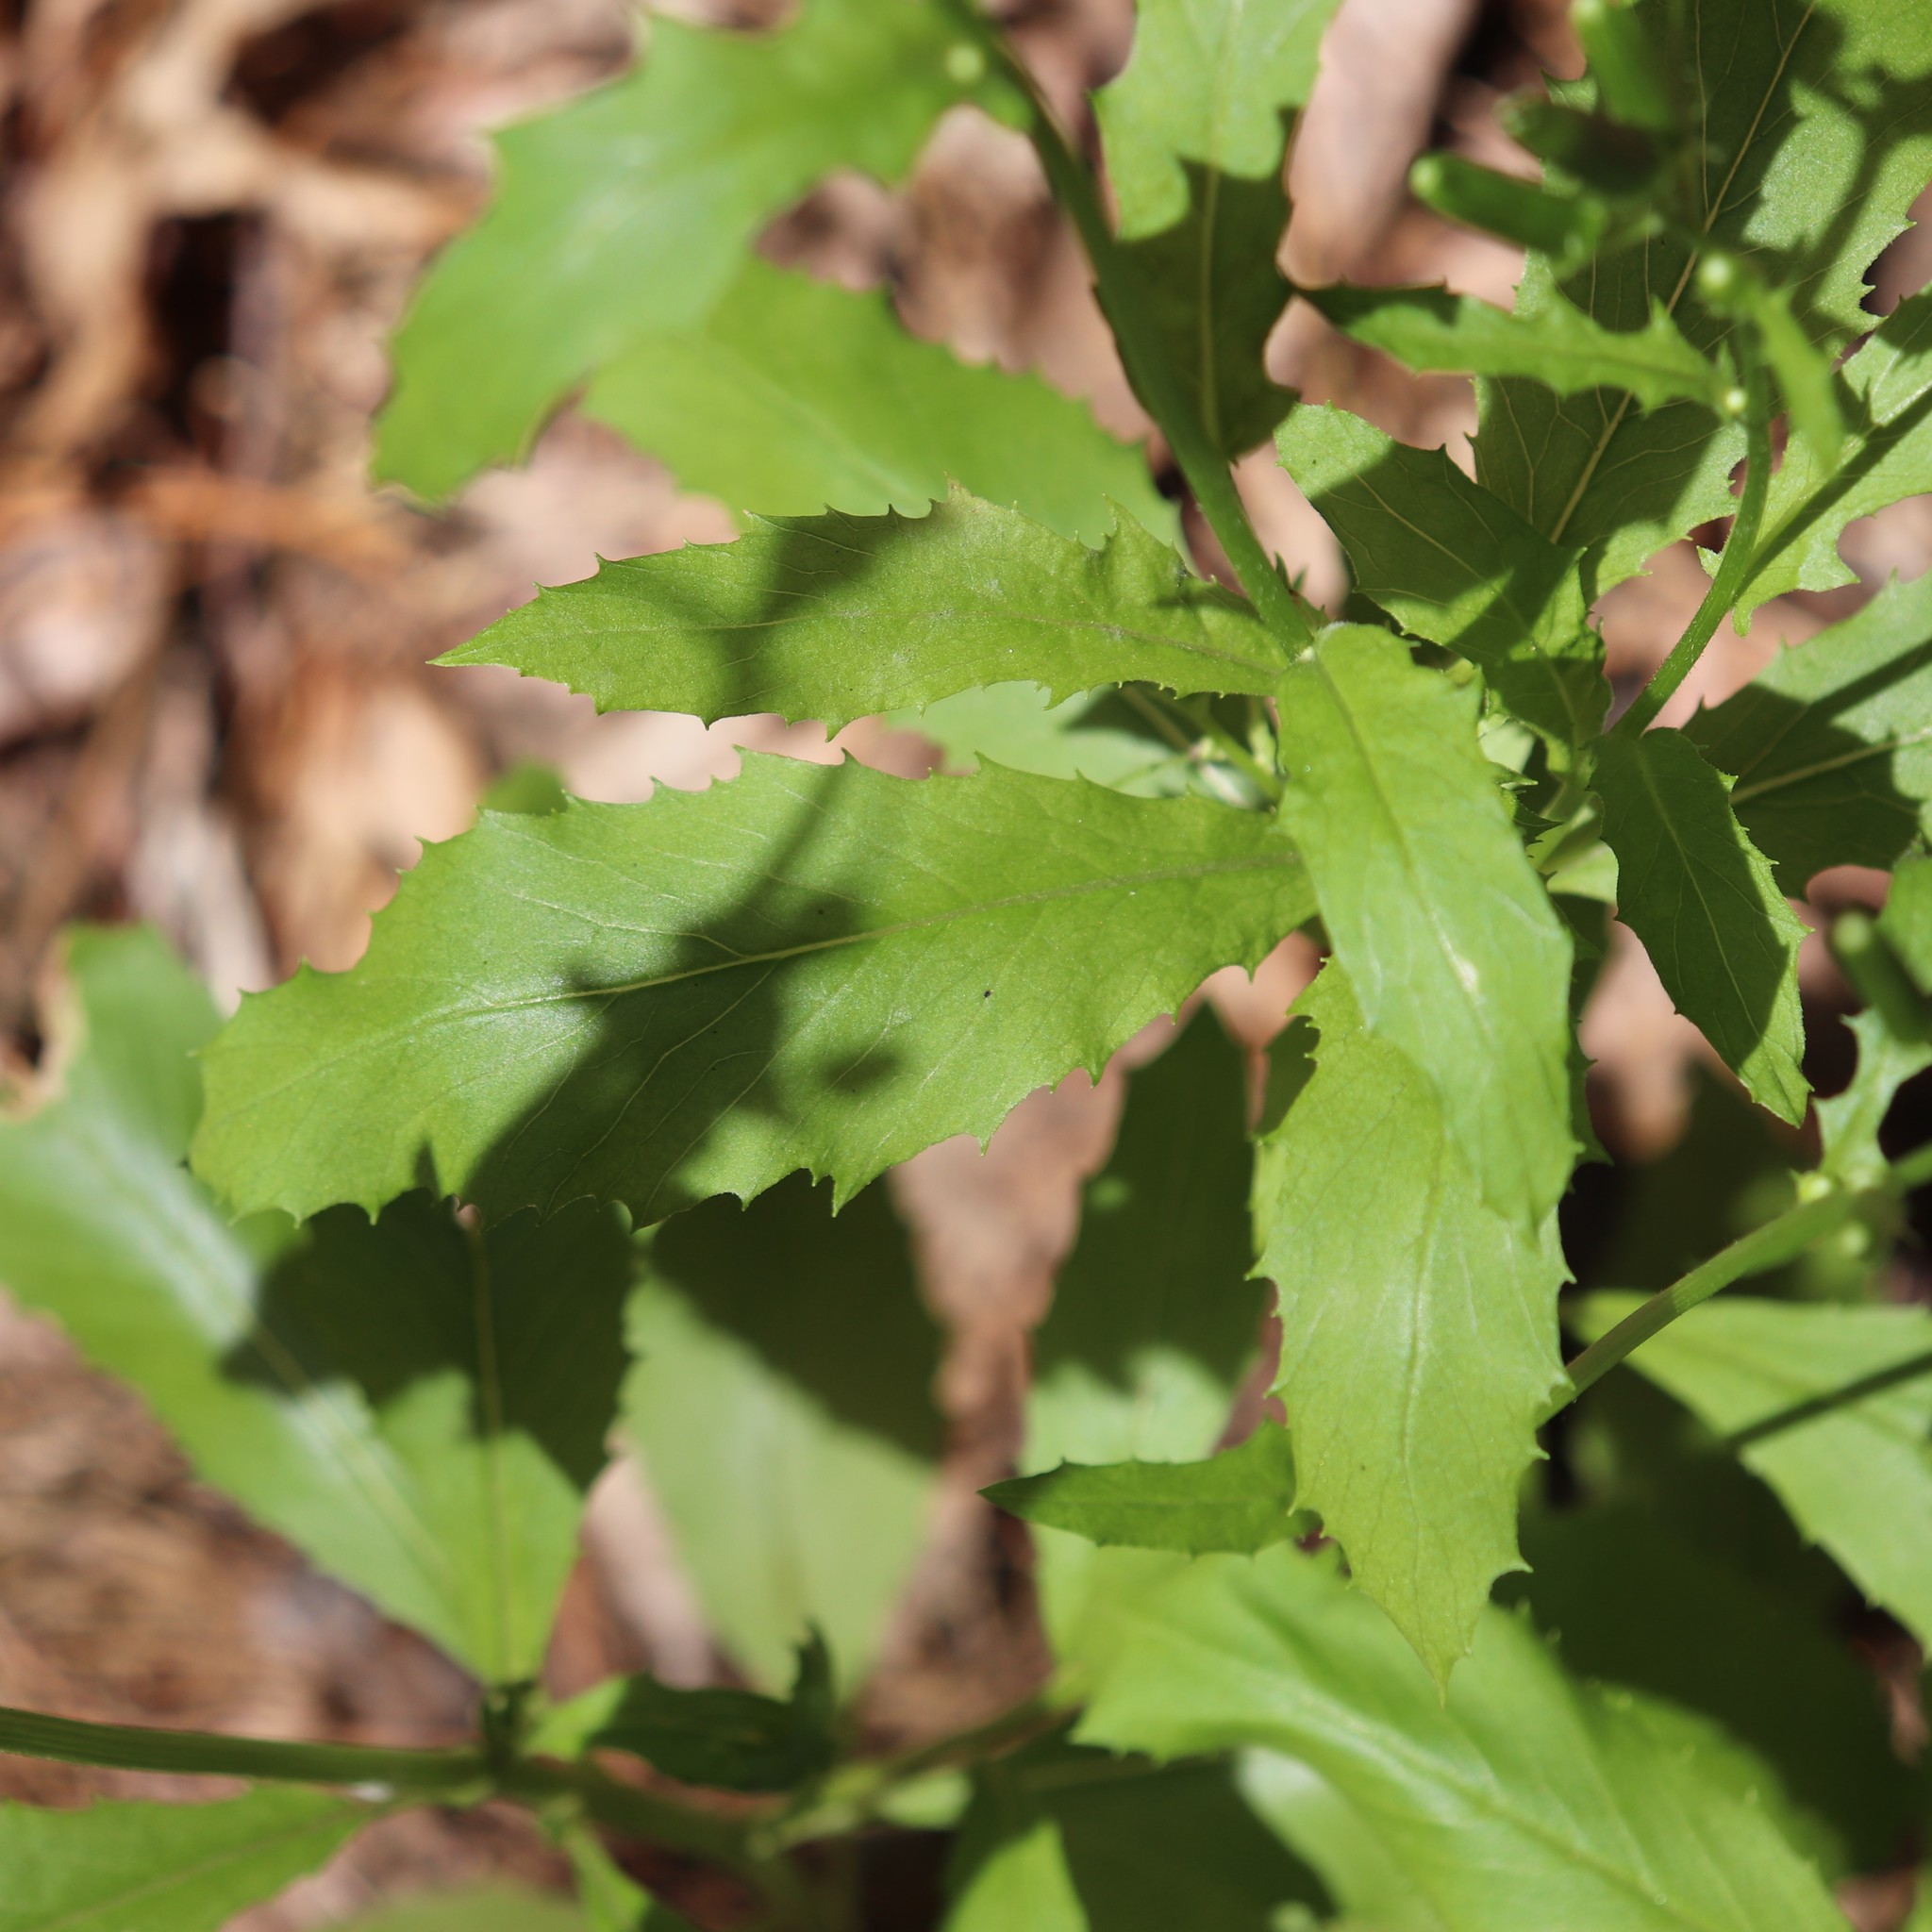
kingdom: Plantae
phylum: Tracheophyta
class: Magnoliopsida
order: Asterales
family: Asteraceae
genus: Erechtites
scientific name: Erechtites hieraciifolius
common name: American burnweed
